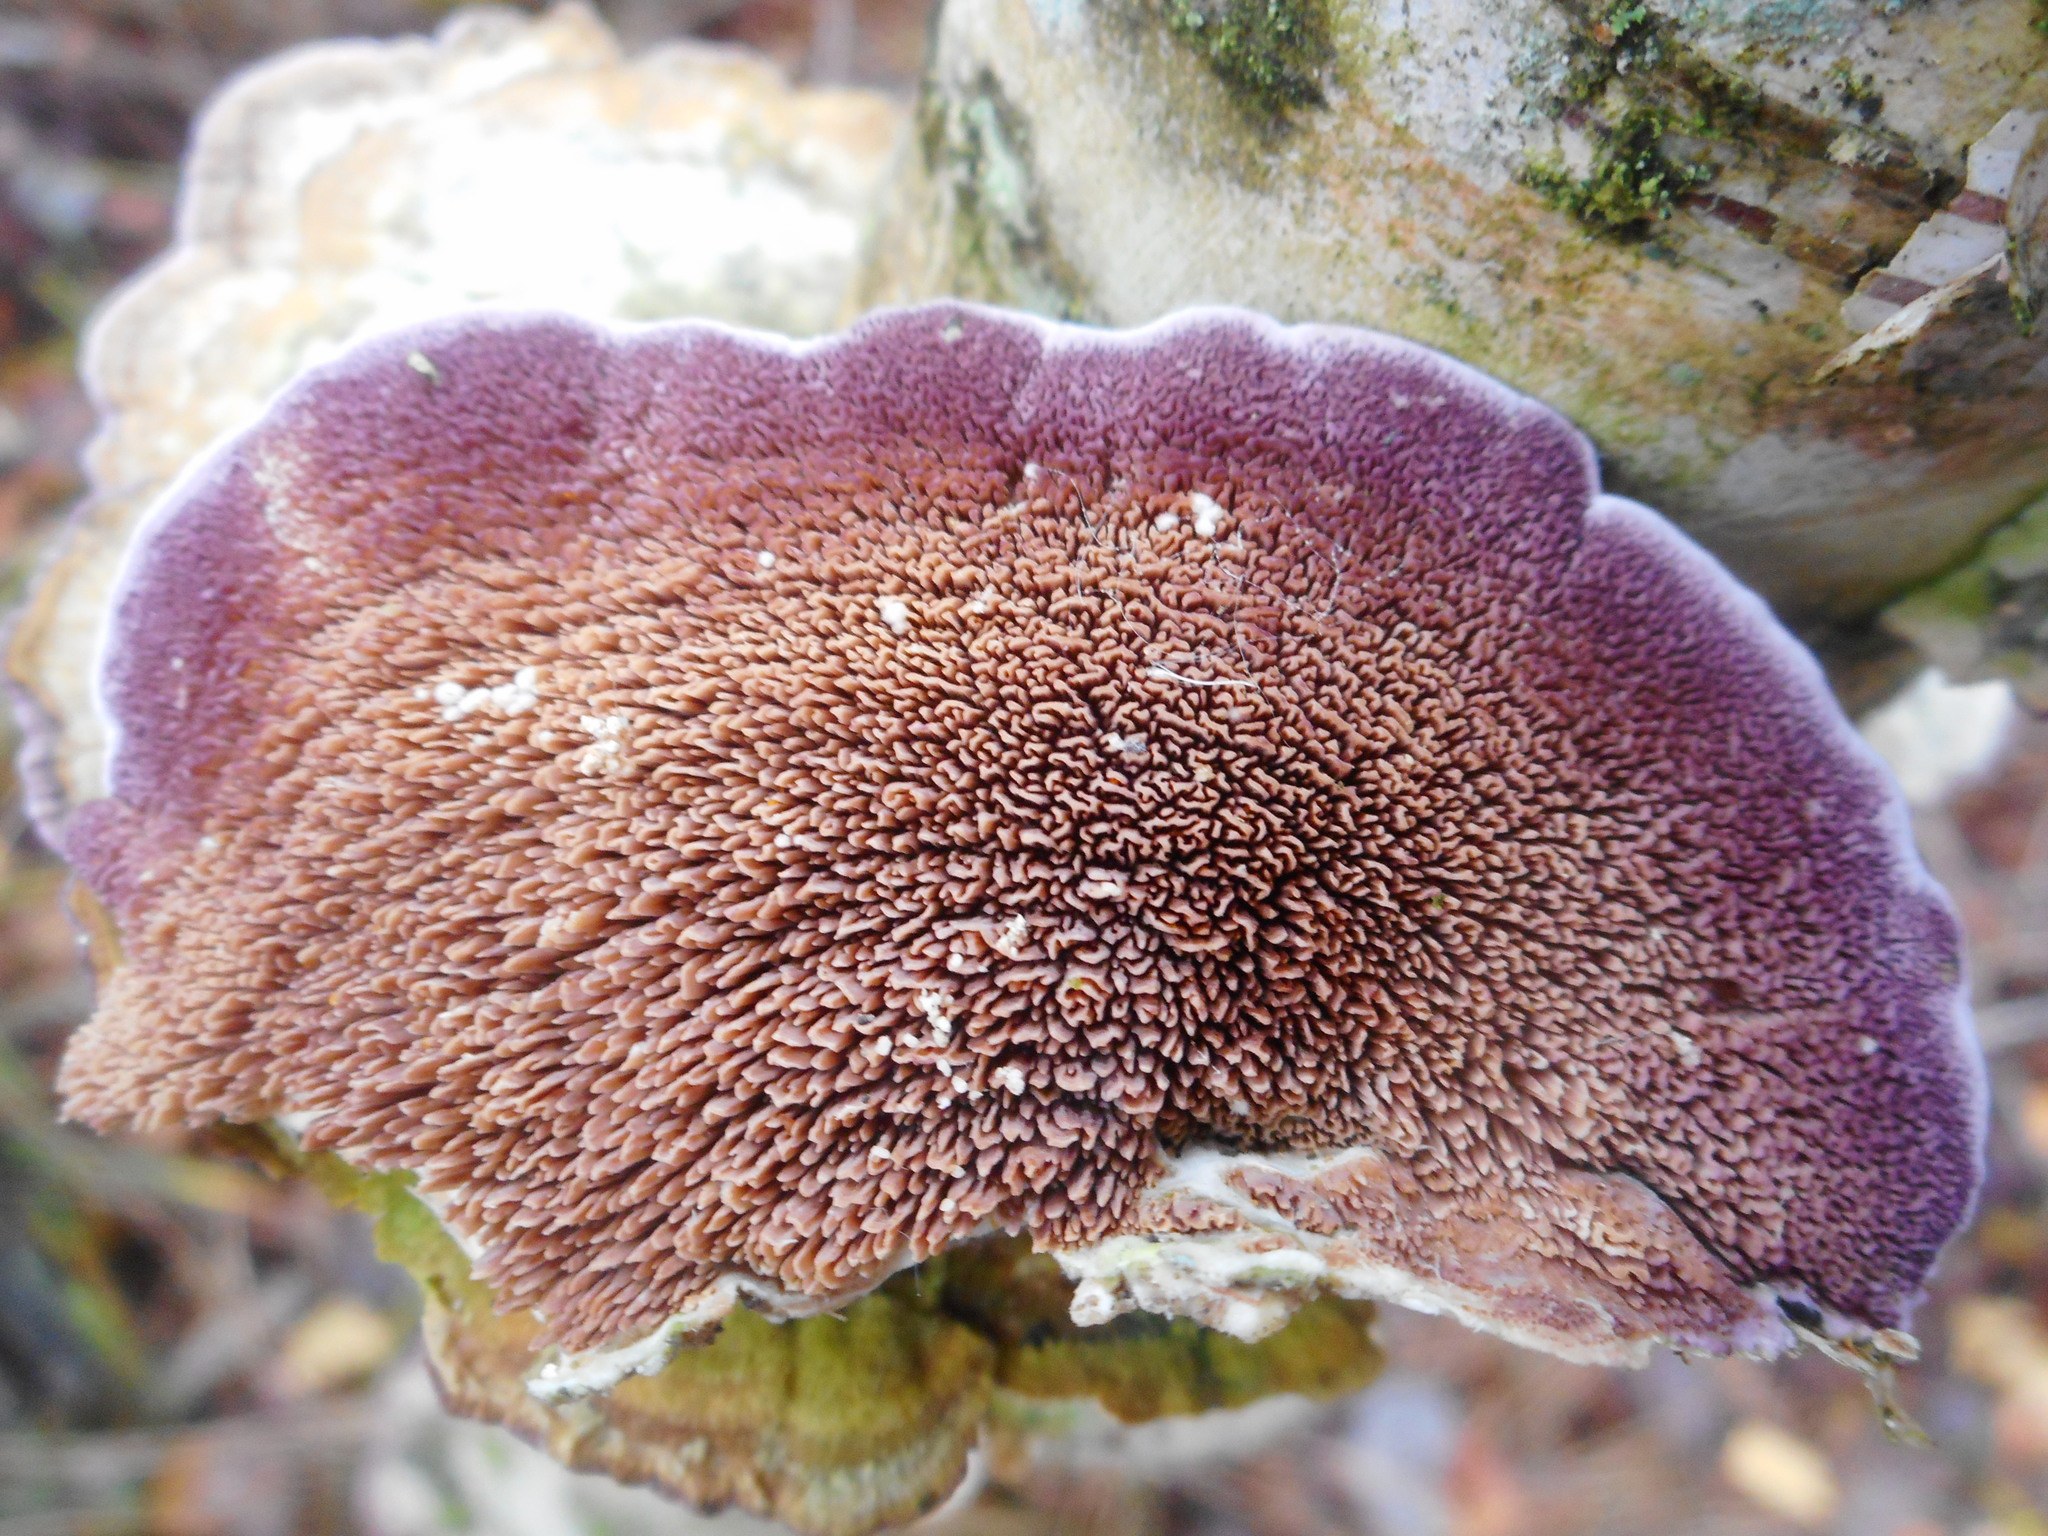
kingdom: Fungi
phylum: Basidiomycota
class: Agaricomycetes
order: Hymenochaetales
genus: Trichaptum
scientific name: Trichaptum biforme
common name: Violet-toothed polypore
